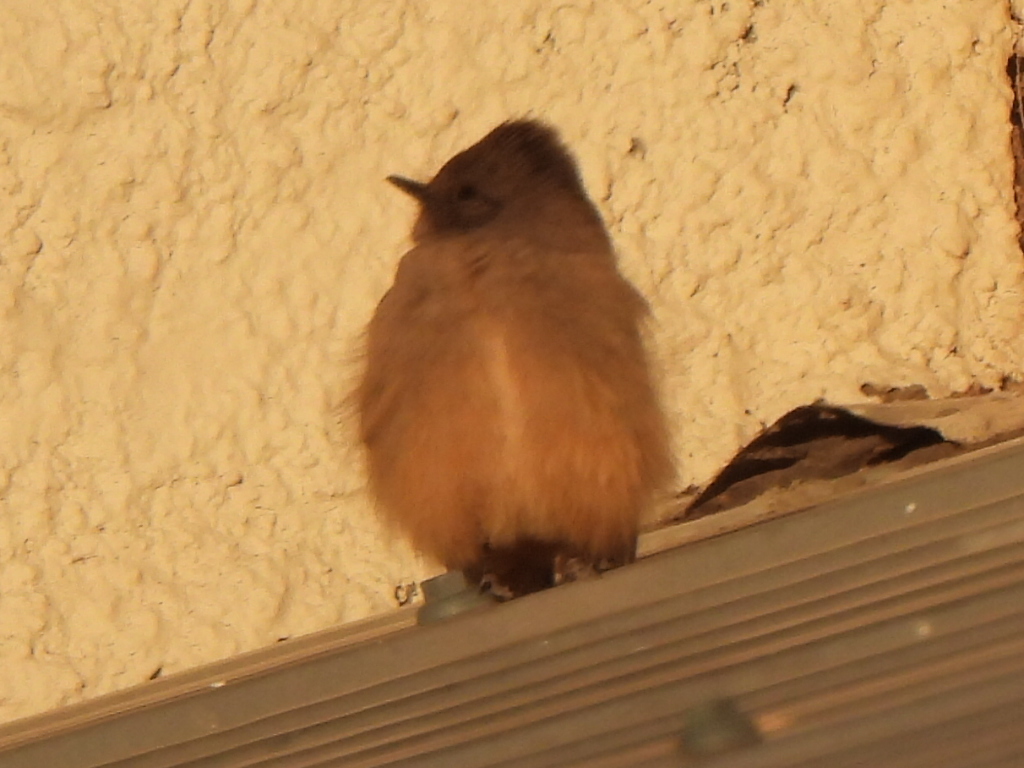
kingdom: Animalia
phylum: Chordata
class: Aves
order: Passeriformes
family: Tyrannidae
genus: Sayornis
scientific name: Sayornis saya
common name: Say's phoebe
